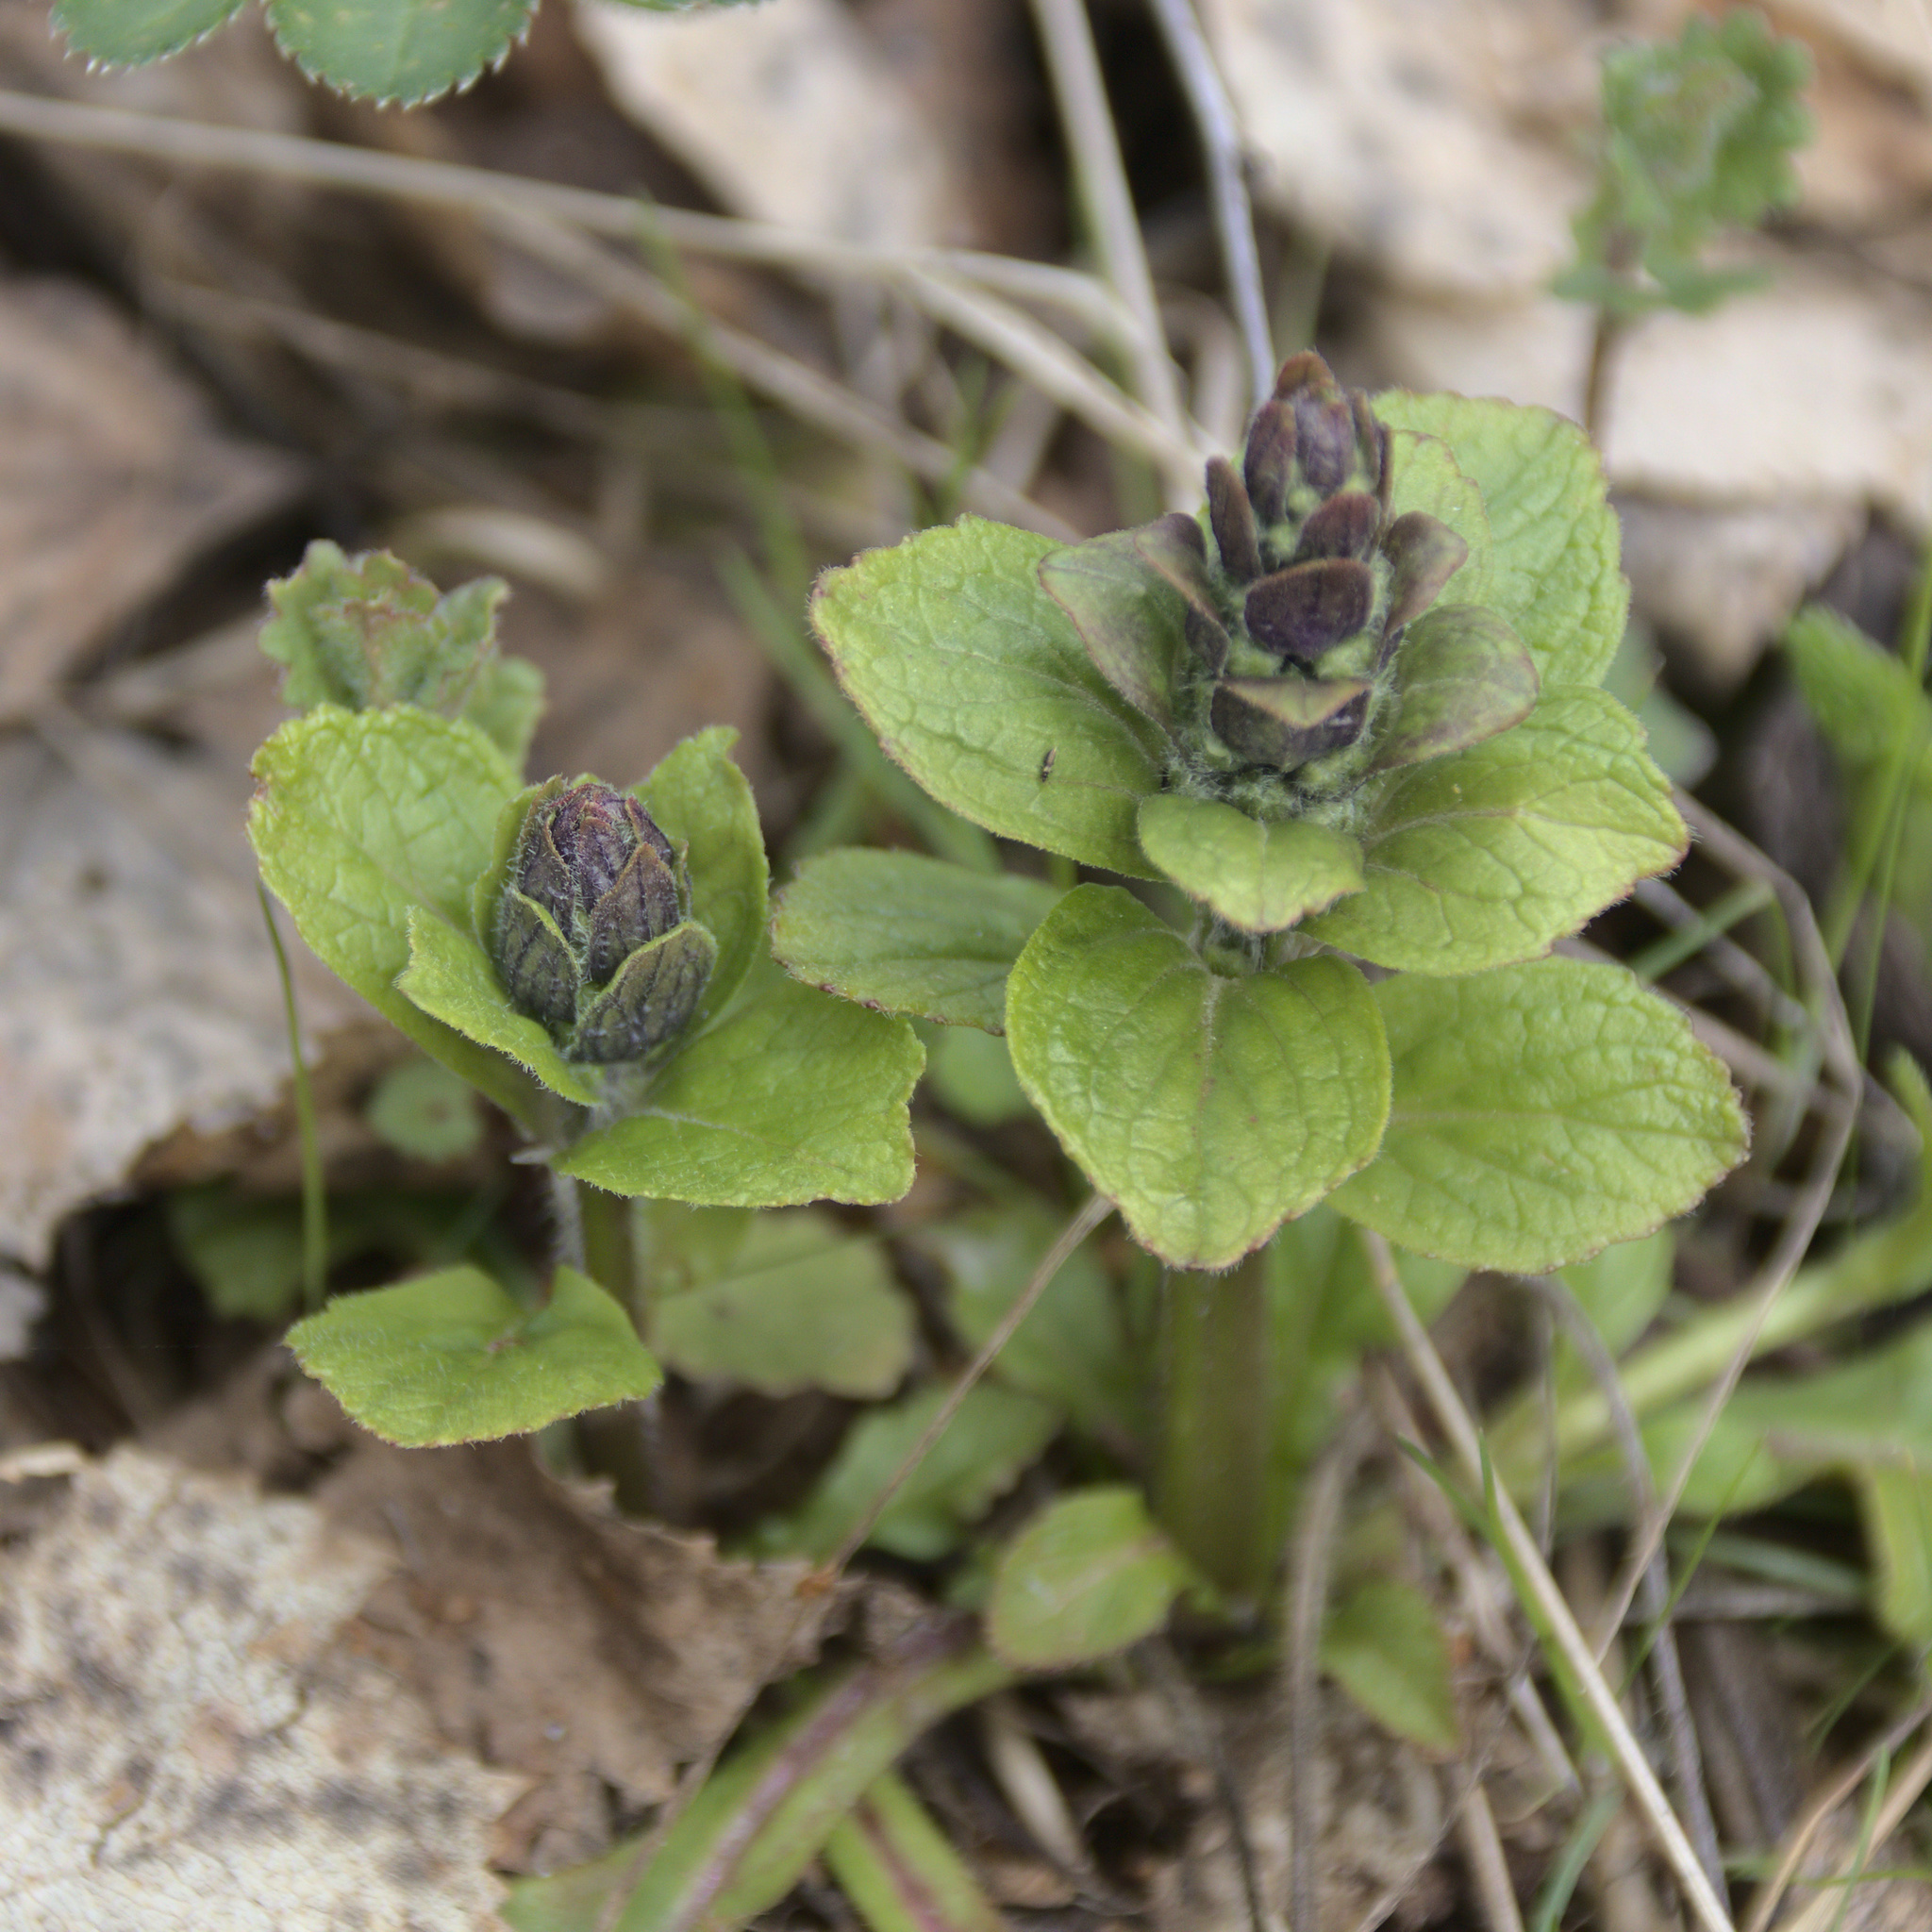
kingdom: Plantae
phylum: Tracheophyta
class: Magnoliopsida
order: Lamiales
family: Lamiaceae
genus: Ajuga
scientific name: Ajuga reptans
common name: Bugle
